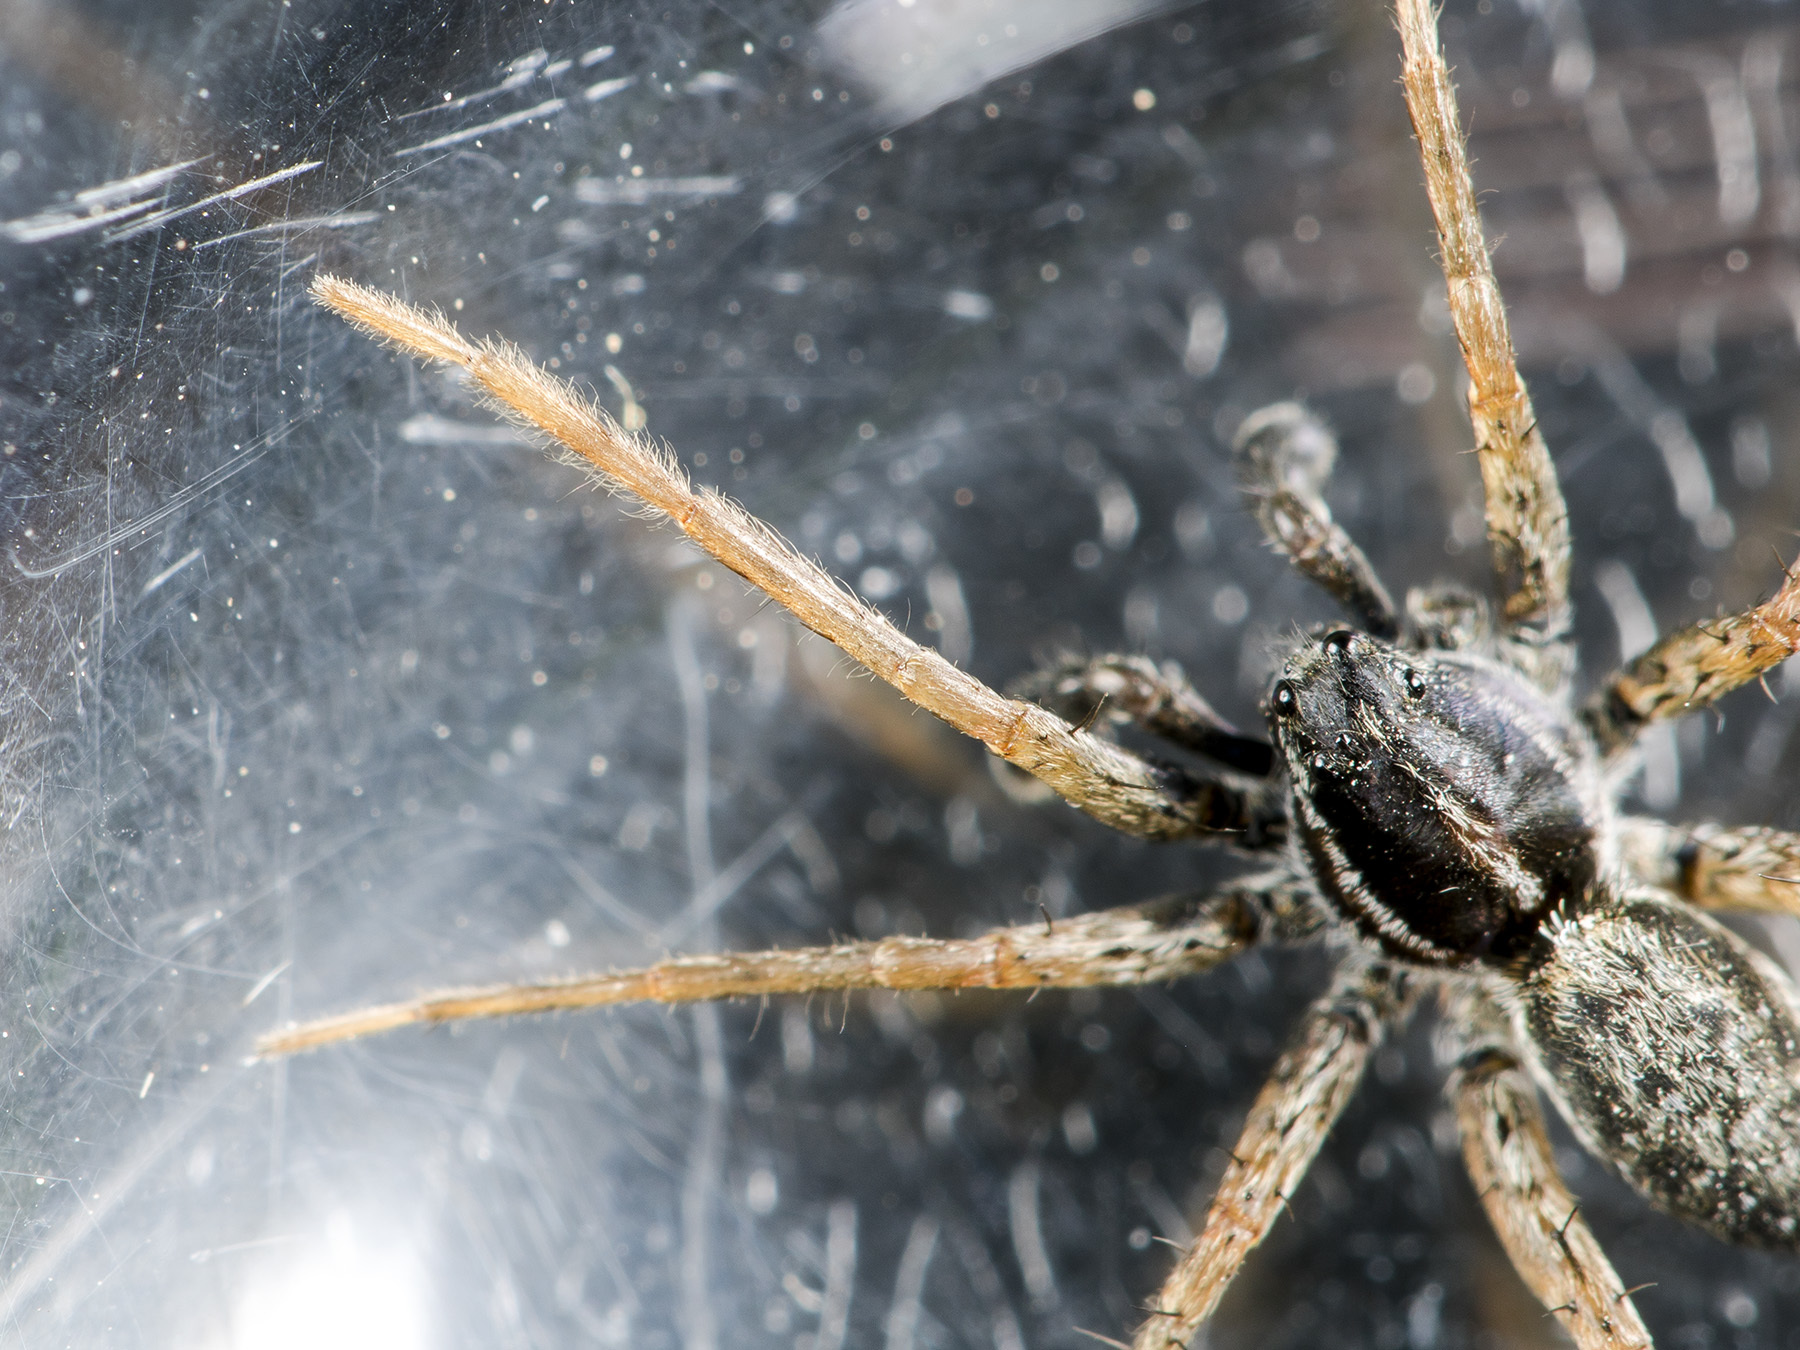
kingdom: Animalia
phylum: Arthropoda
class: Arachnida
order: Araneae
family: Lycosidae
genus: Pardosa
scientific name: Pardosa zonsteini
